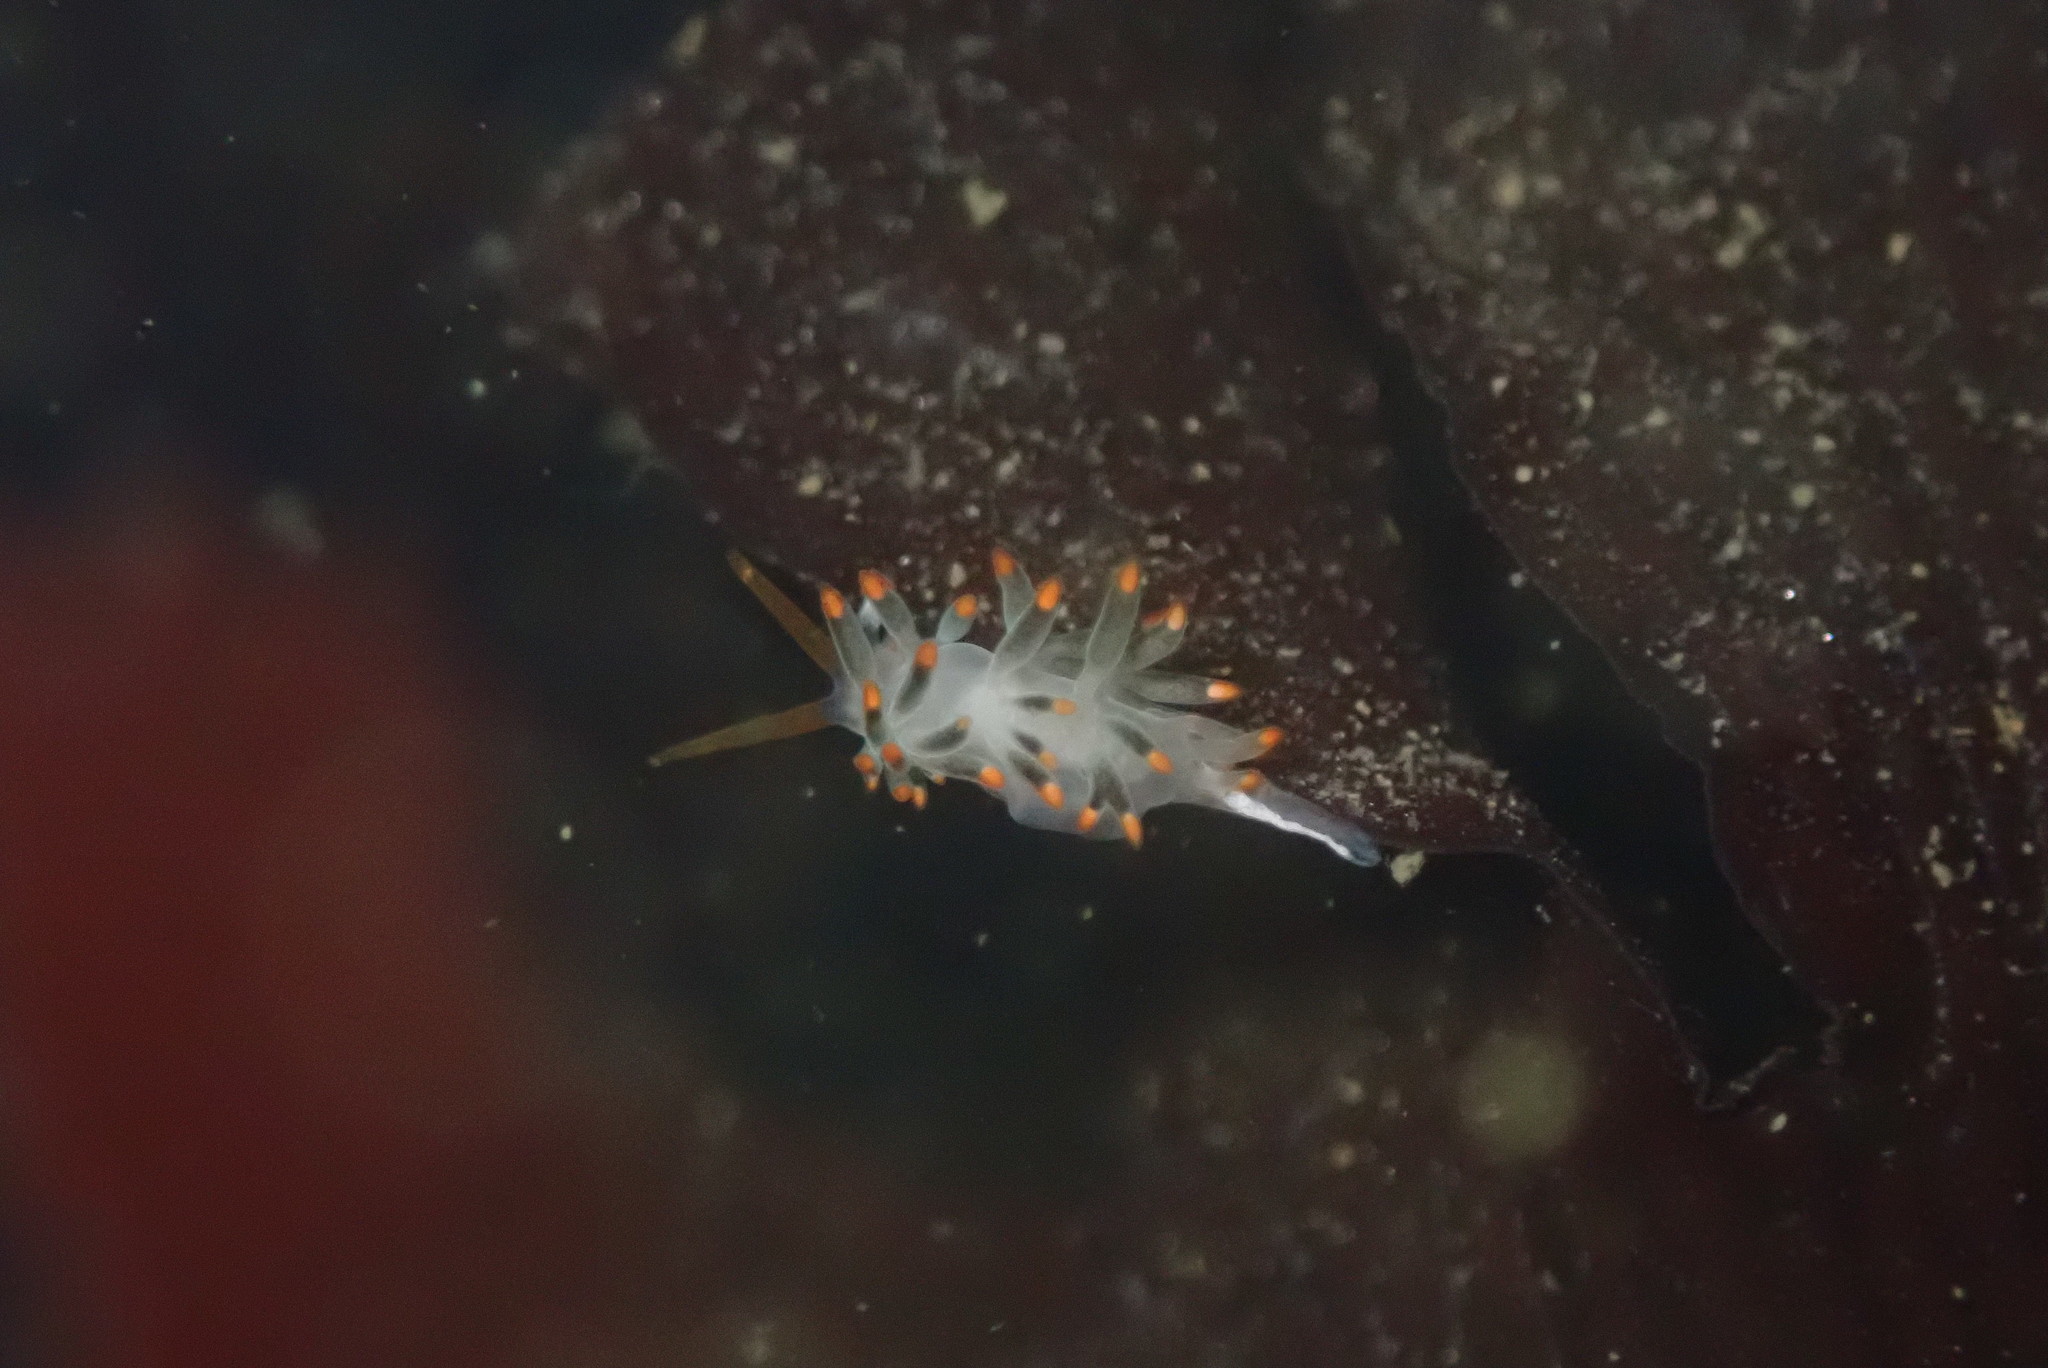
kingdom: Animalia
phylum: Mollusca
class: Gastropoda
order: Nudibranchia
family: Trinchesiidae
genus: Diaphoreolis
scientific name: Diaphoreolis lagunae
